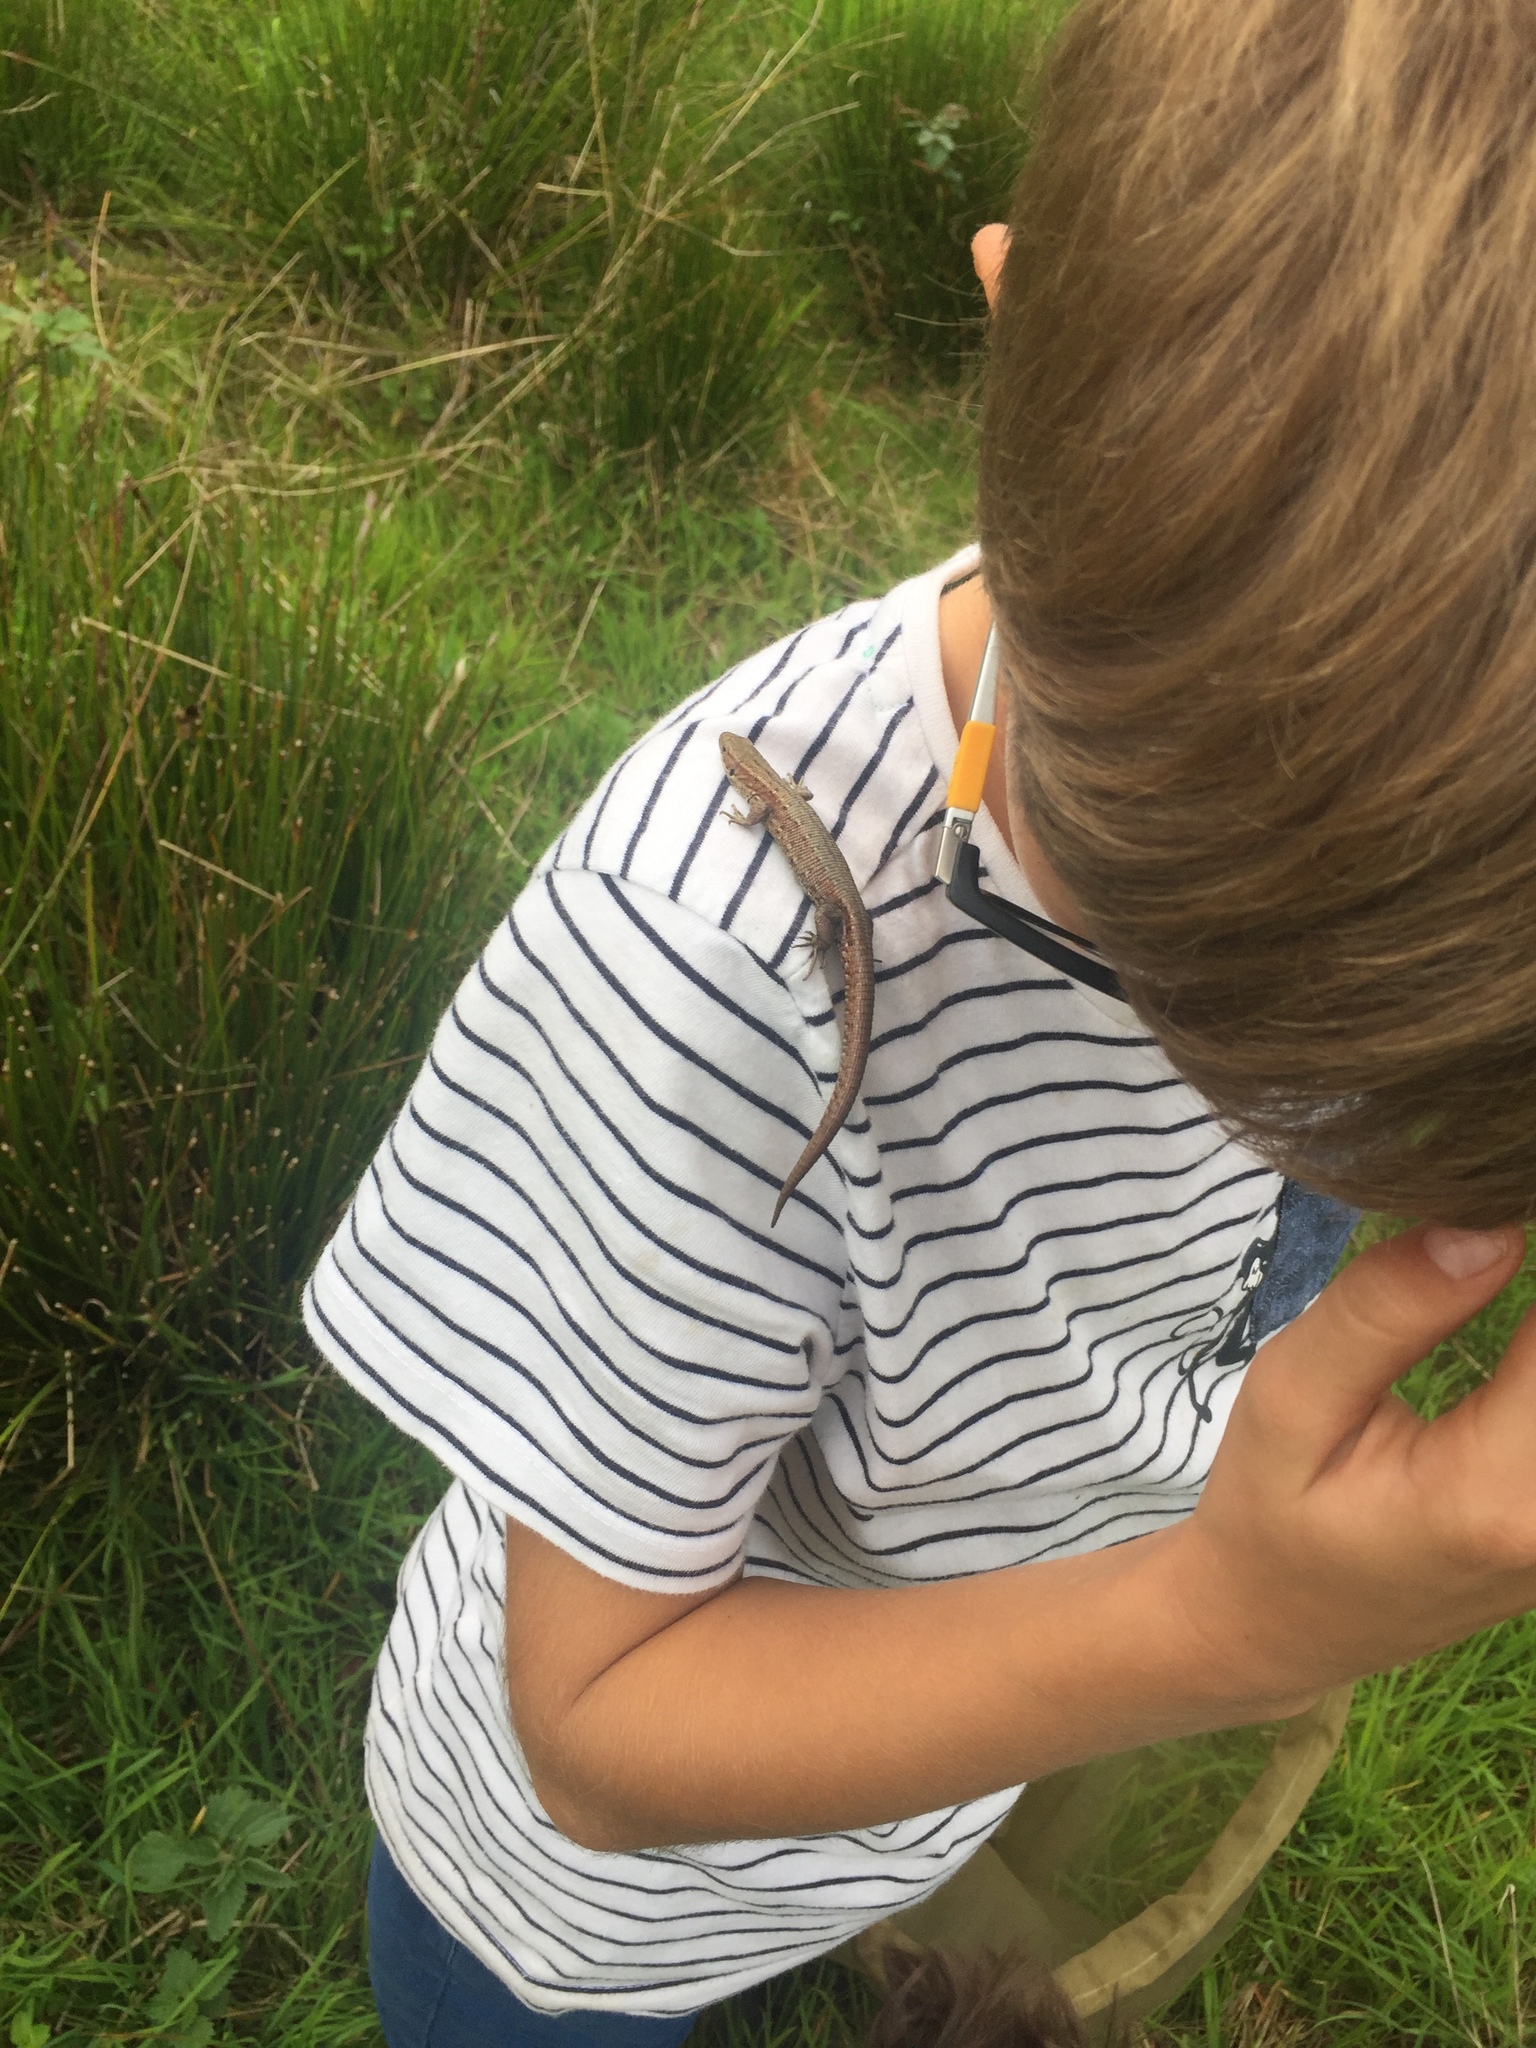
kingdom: Animalia
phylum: Chordata
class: Squamata
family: Lacertidae
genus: Zootoca
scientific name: Zootoca vivipara
